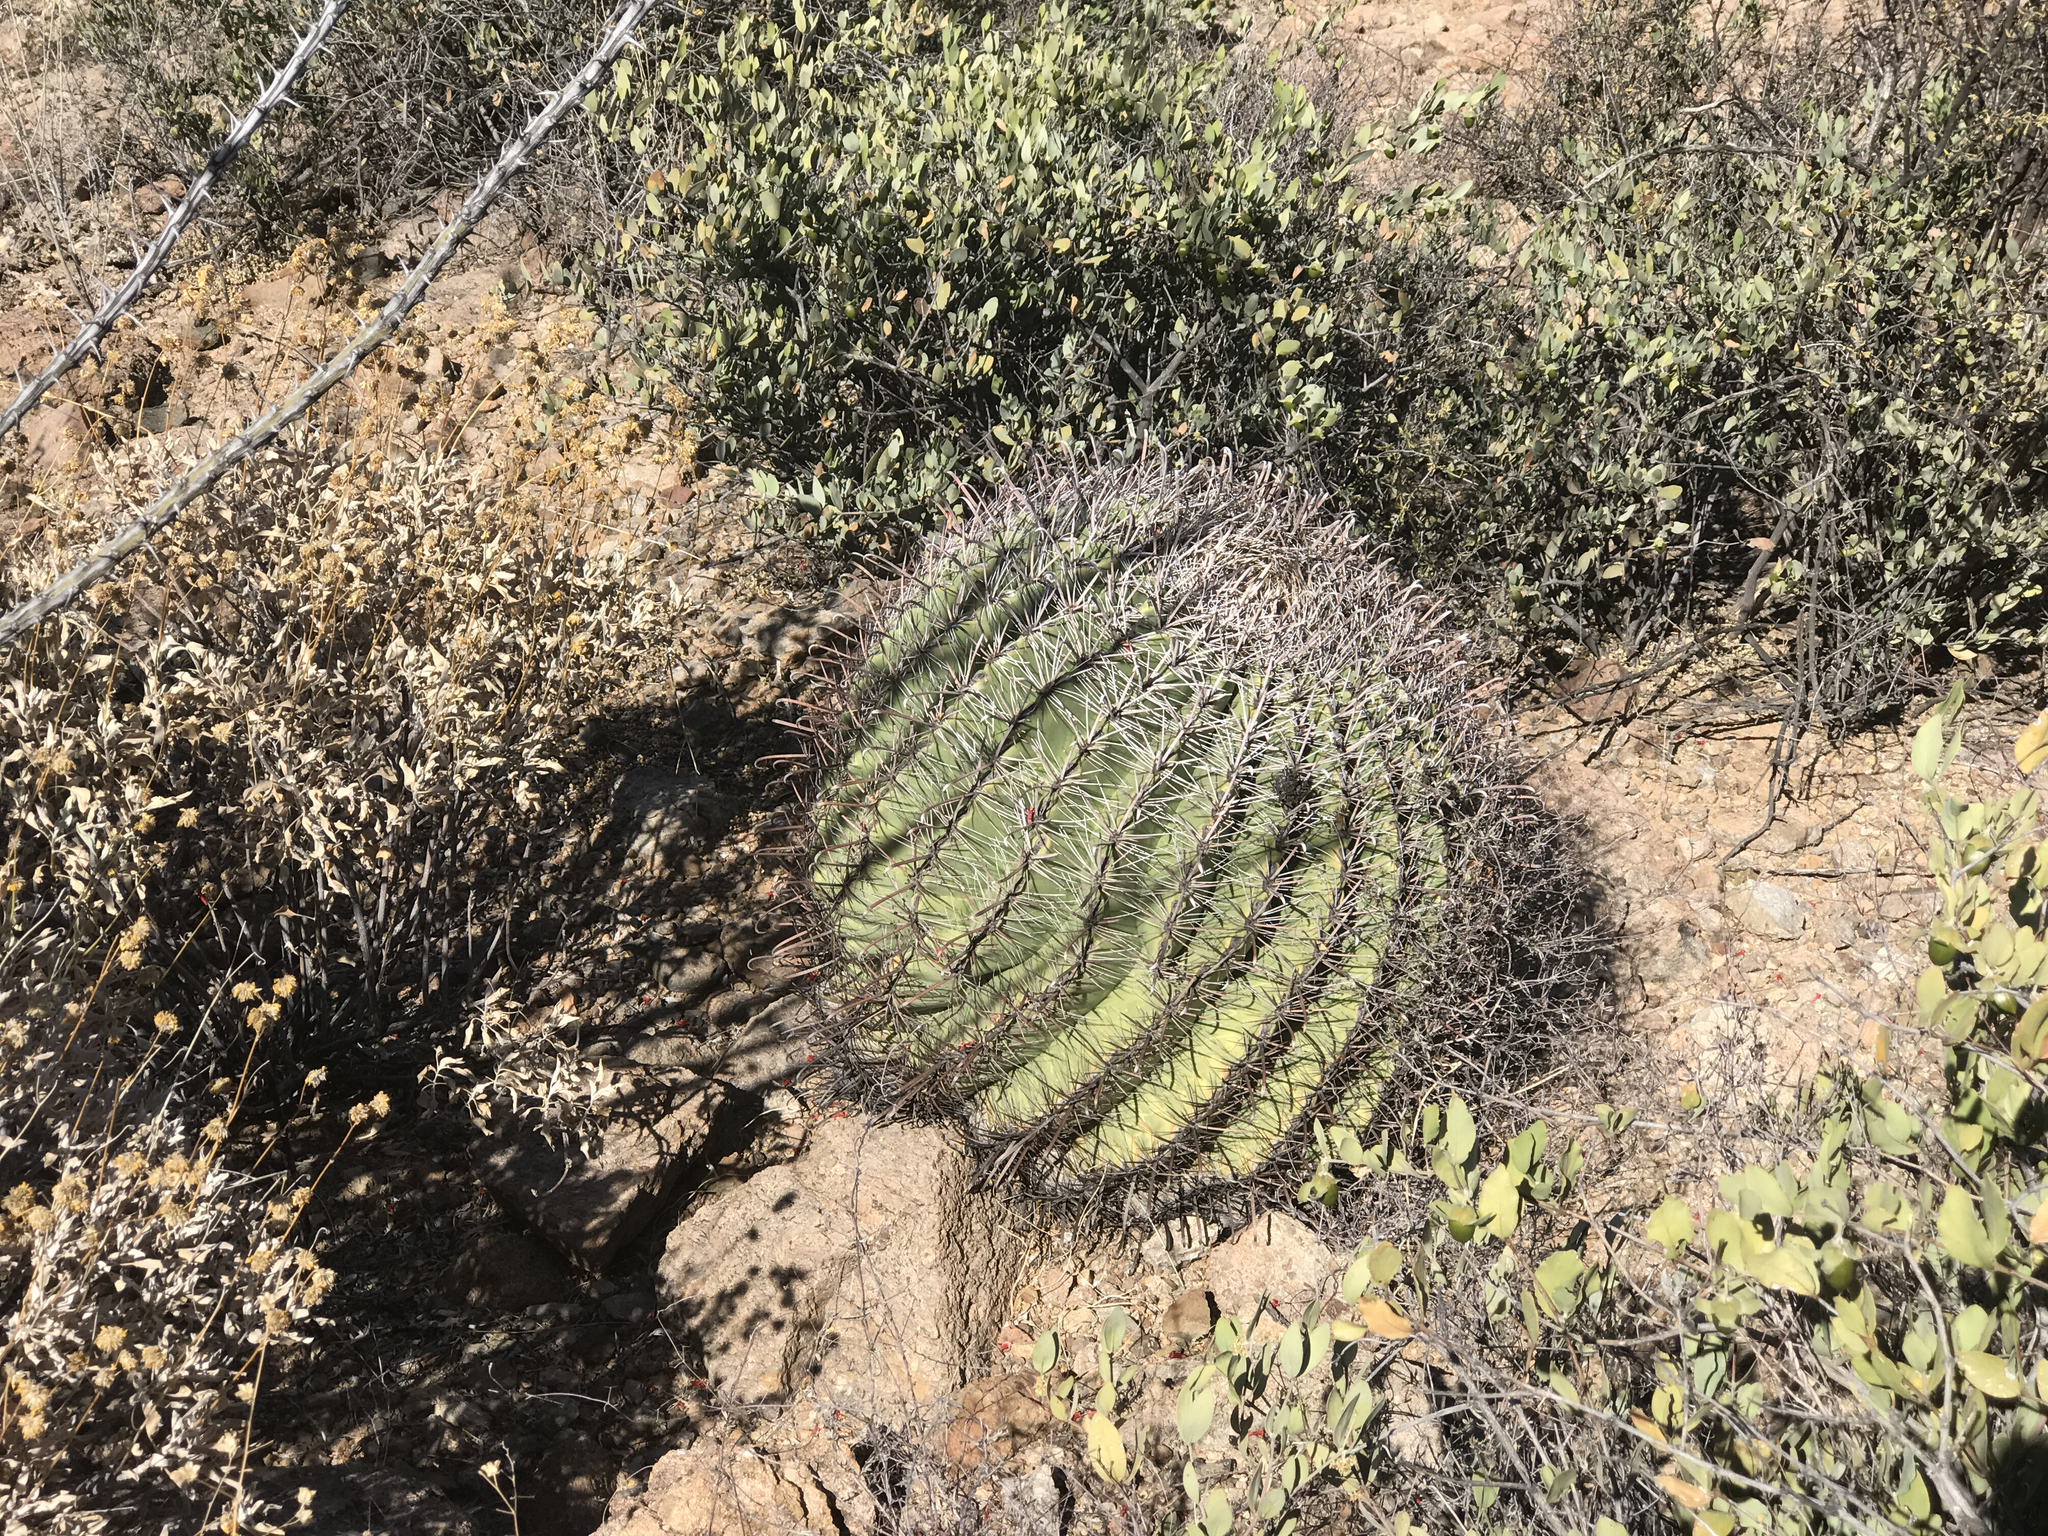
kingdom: Plantae
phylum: Tracheophyta
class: Magnoliopsida
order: Caryophyllales
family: Cactaceae
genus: Ferocactus
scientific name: Ferocactus wislizeni
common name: Candy barrel cactus
